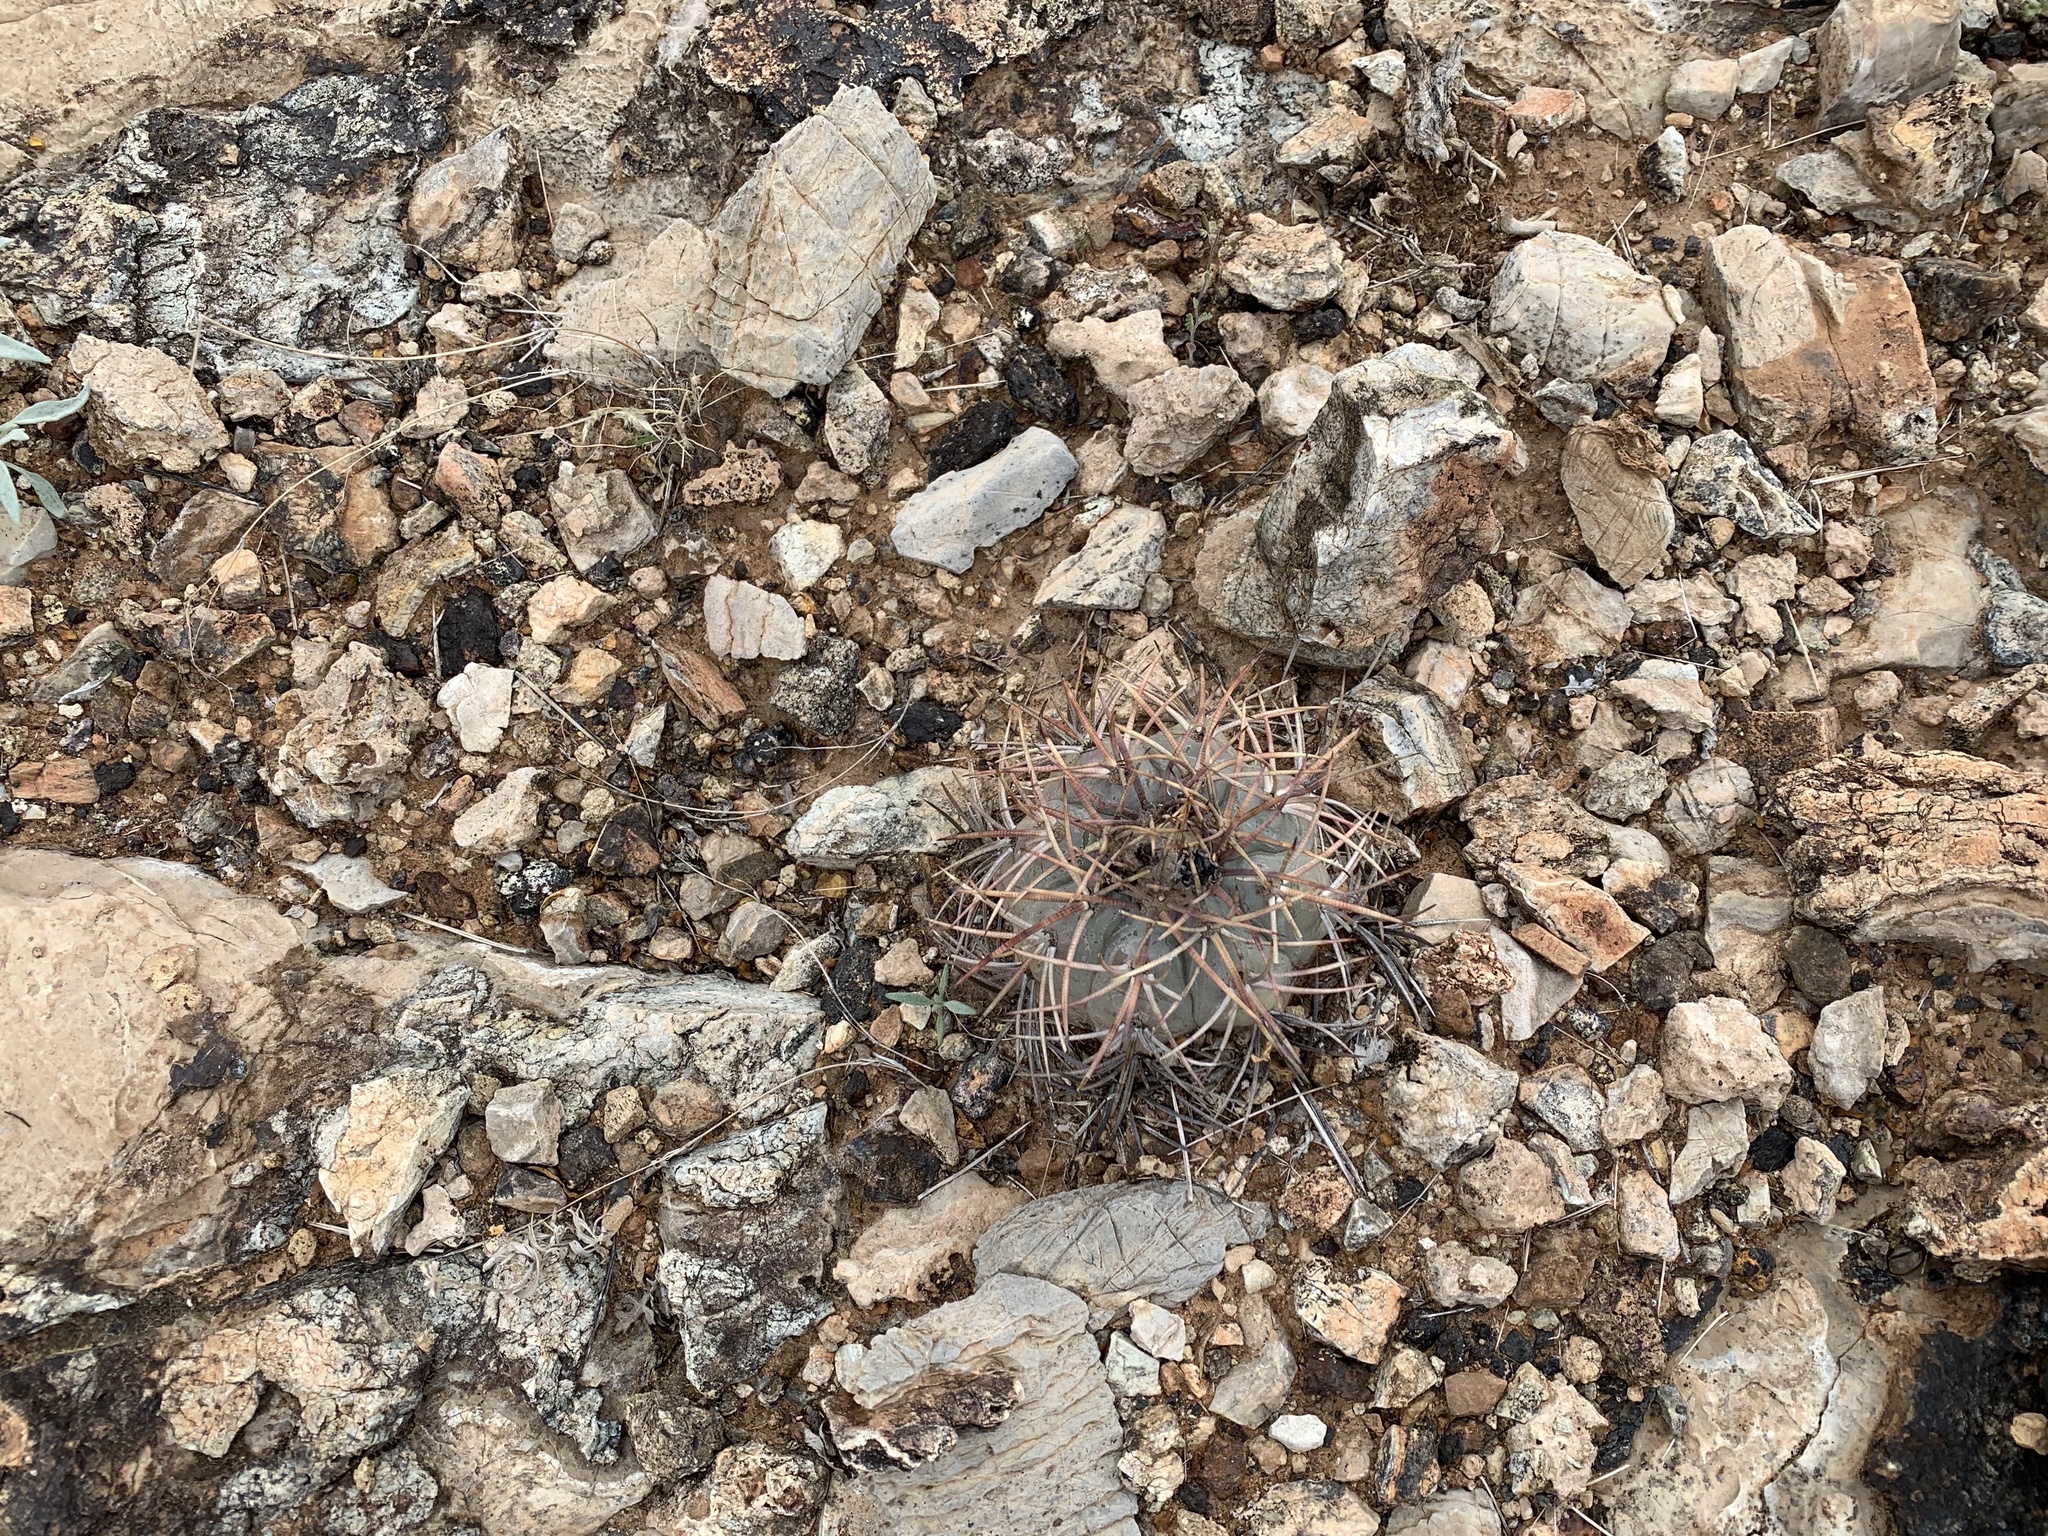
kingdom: Plantae
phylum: Tracheophyta
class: Magnoliopsida
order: Caryophyllales
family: Cactaceae
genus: Echinocactus
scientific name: Echinocactus horizonthalonius
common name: Devilshead
